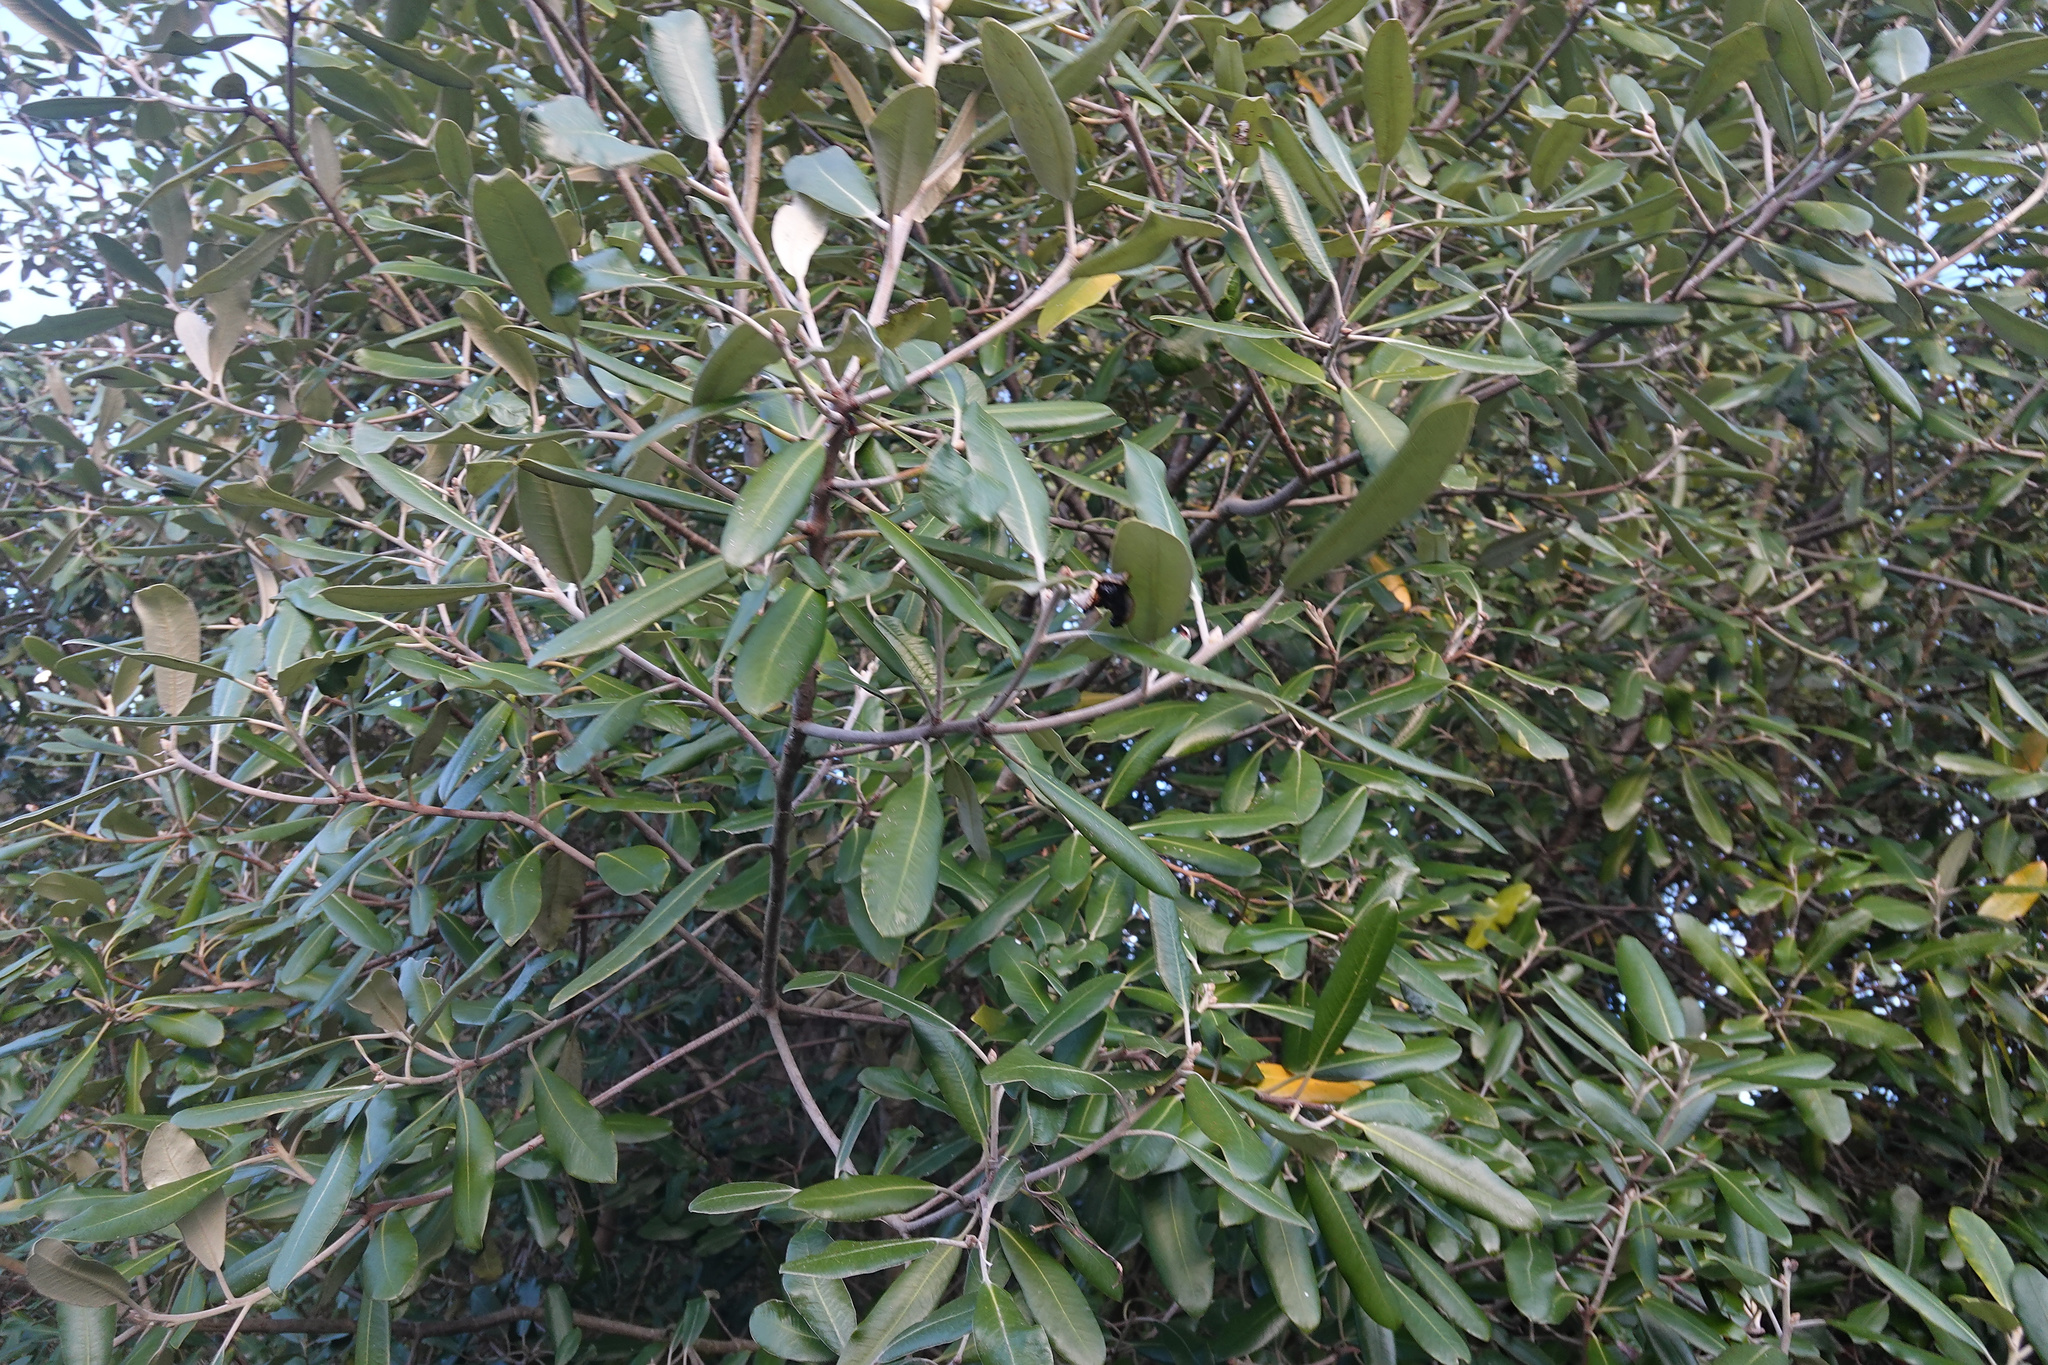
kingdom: Plantae
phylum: Tracheophyta
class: Magnoliopsida
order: Apiales
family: Pittosporaceae
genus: Pittosporum
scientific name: Pittosporum ralphii
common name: Ralph's desertwillow
